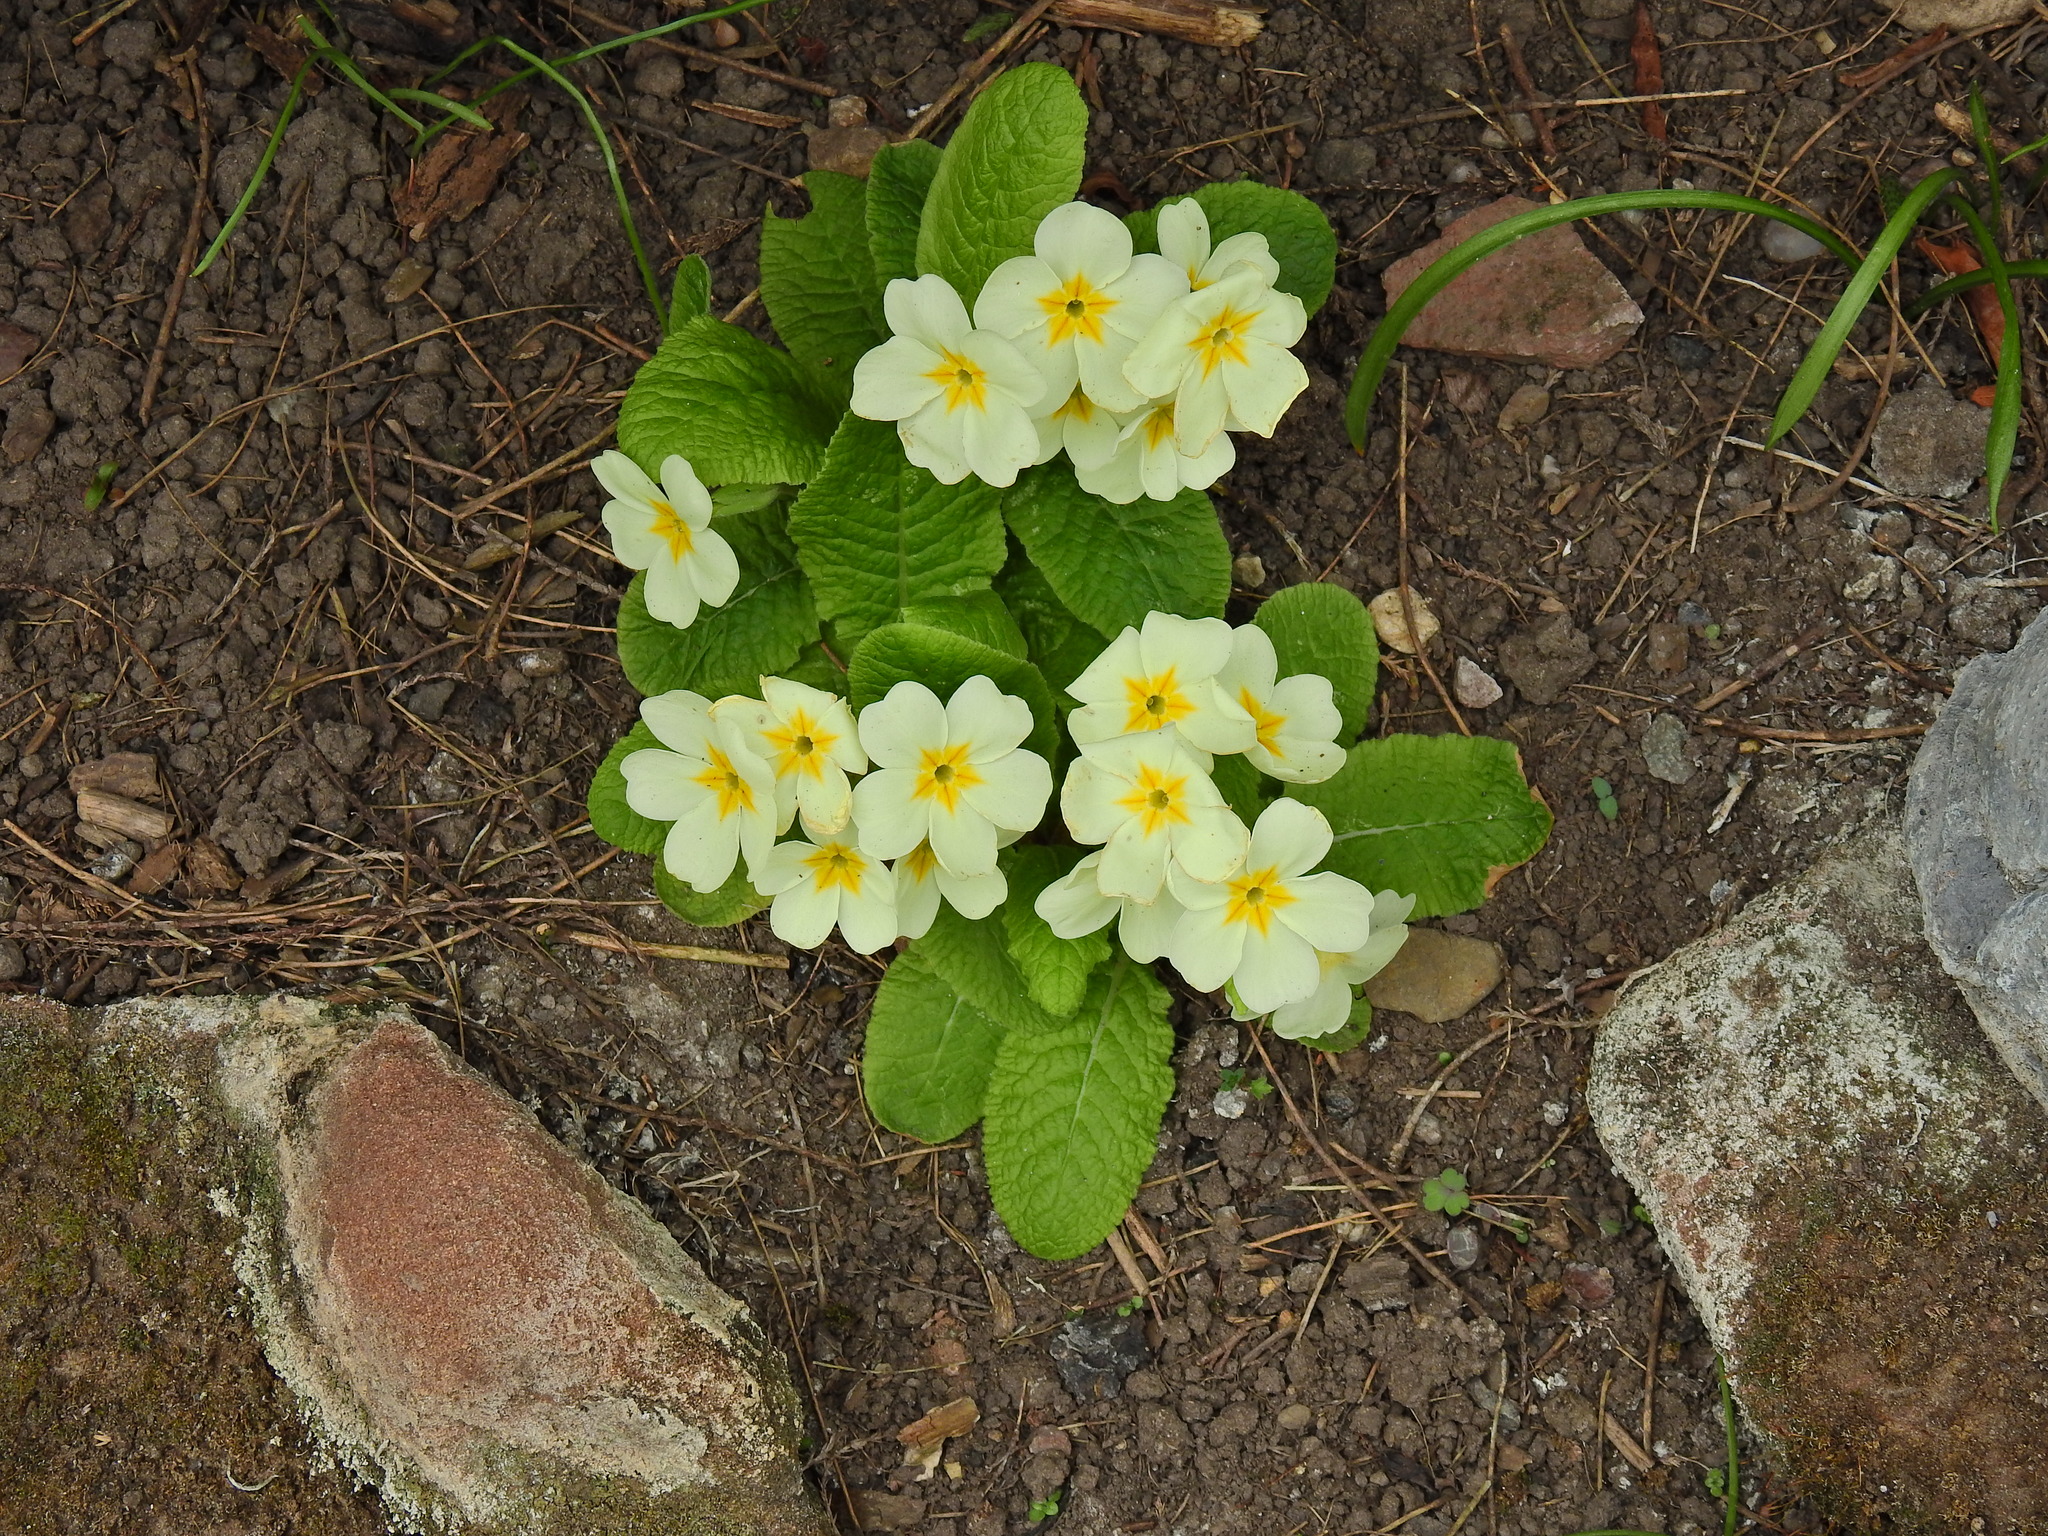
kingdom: Plantae
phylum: Tracheophyta
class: Magnoliopsida
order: Ericales
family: Primulaceae
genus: Primula
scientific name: Primula vulgaris
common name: Primrose
